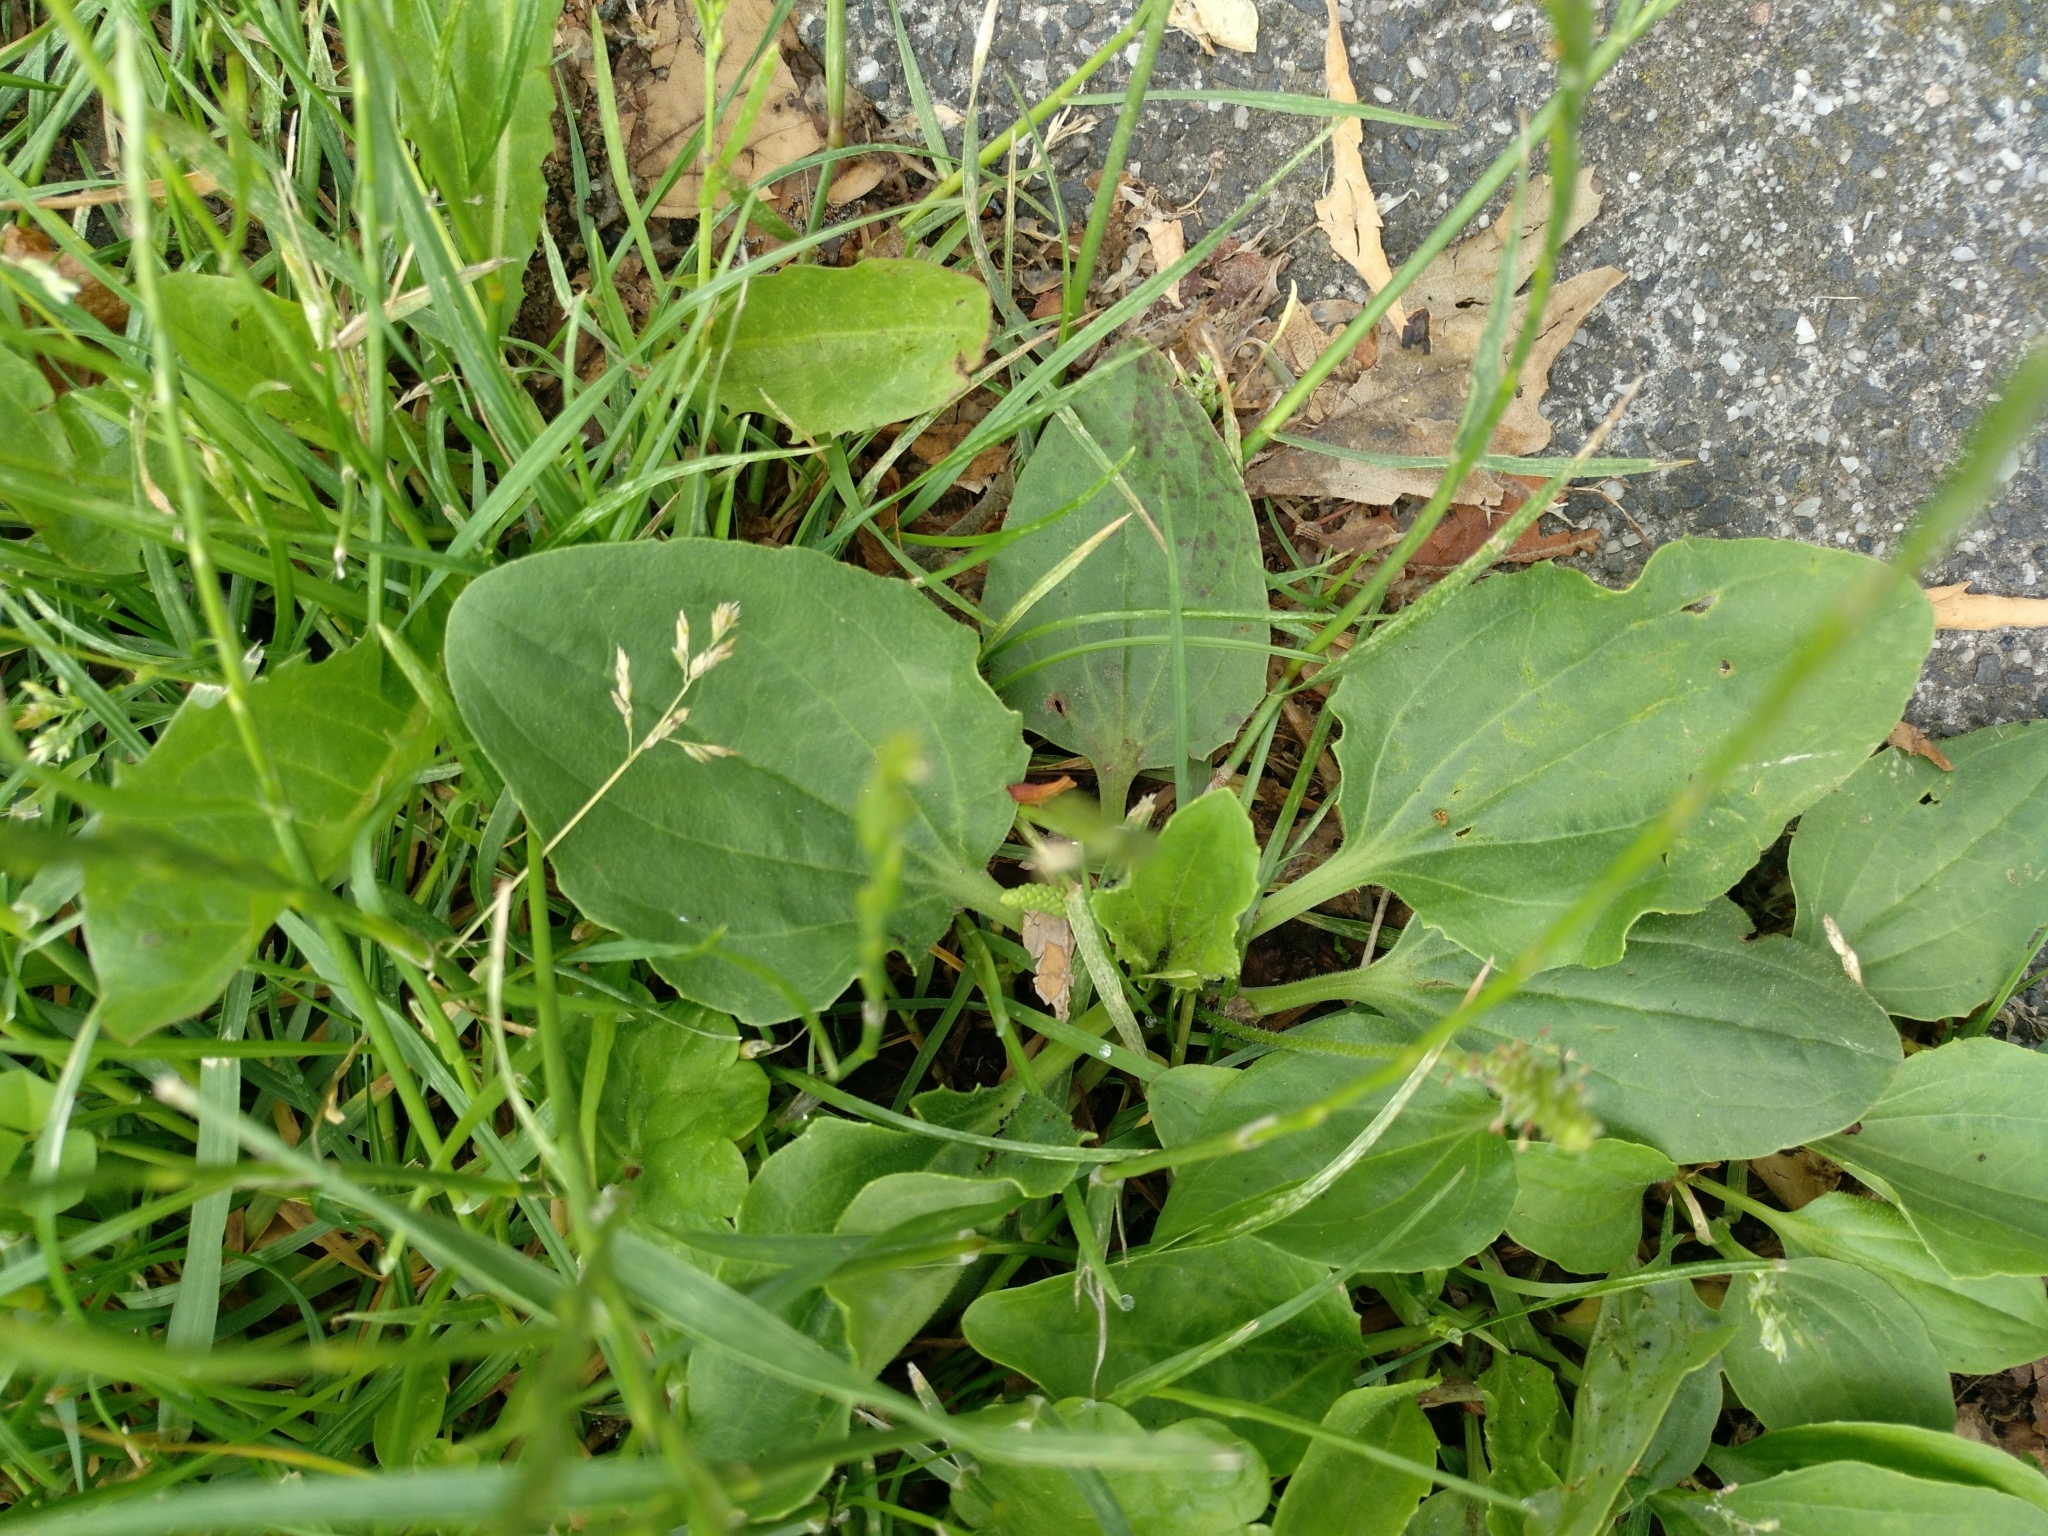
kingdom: Plantae
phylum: Tracheophyta
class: Magnoliopsida
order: Lamiales
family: Plantaginaceae
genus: Plantago
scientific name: Plantago major
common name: Common plantain
